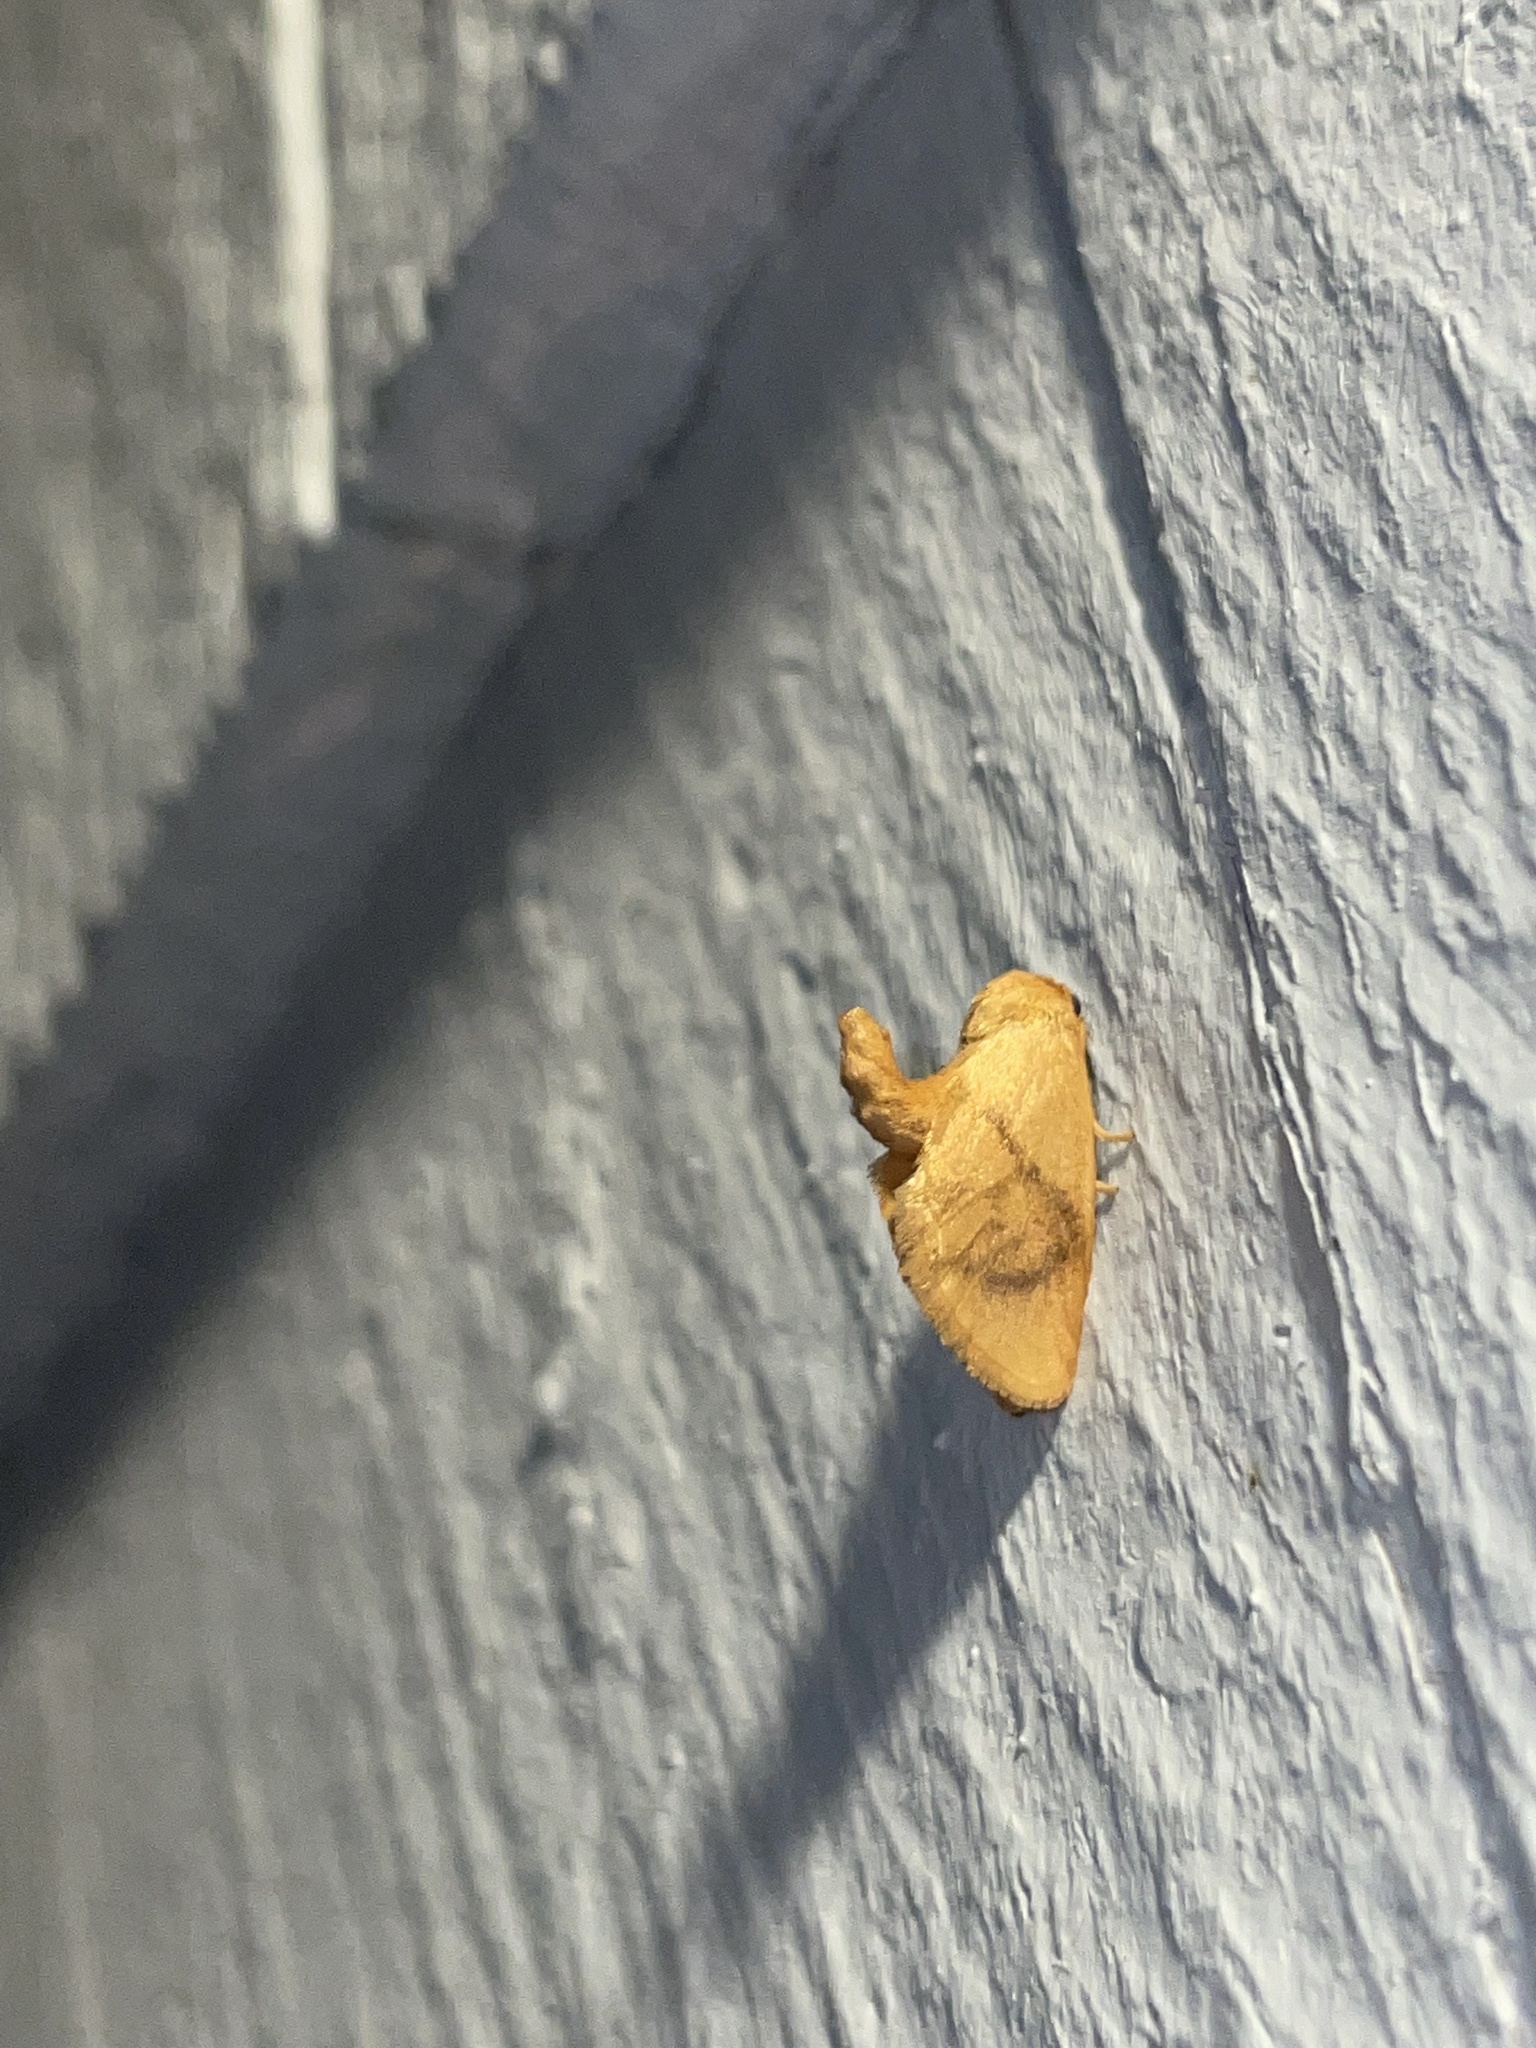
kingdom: Animalia
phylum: Arthropoda
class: Insecta
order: Lepidoptera
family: Limacodidae
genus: Tortricidia
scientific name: Tortricidia flexuosa
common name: Abbreviated button slug moth
